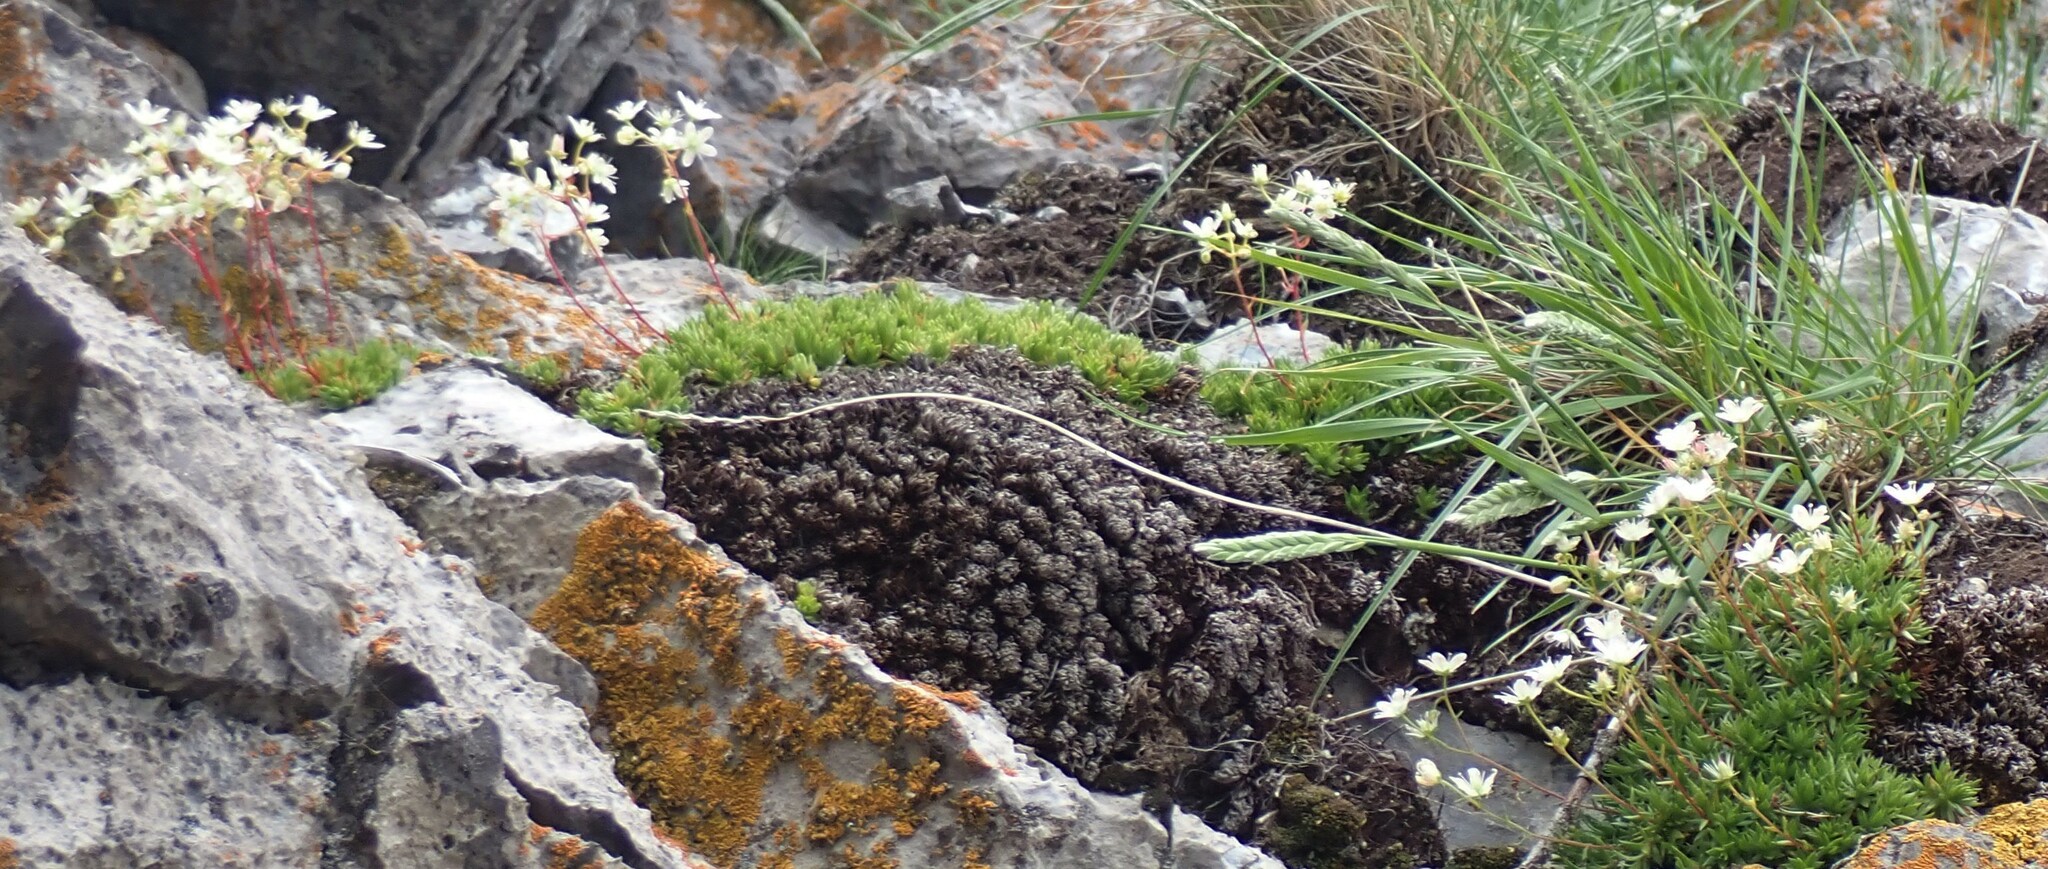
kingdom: Plantae
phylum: Tracheophyta
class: Magnoliopsida
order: Saxifragales
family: Saxifragaceae
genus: Saxifraga
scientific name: Saxifraga bronchialis
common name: Matted saxifrage
